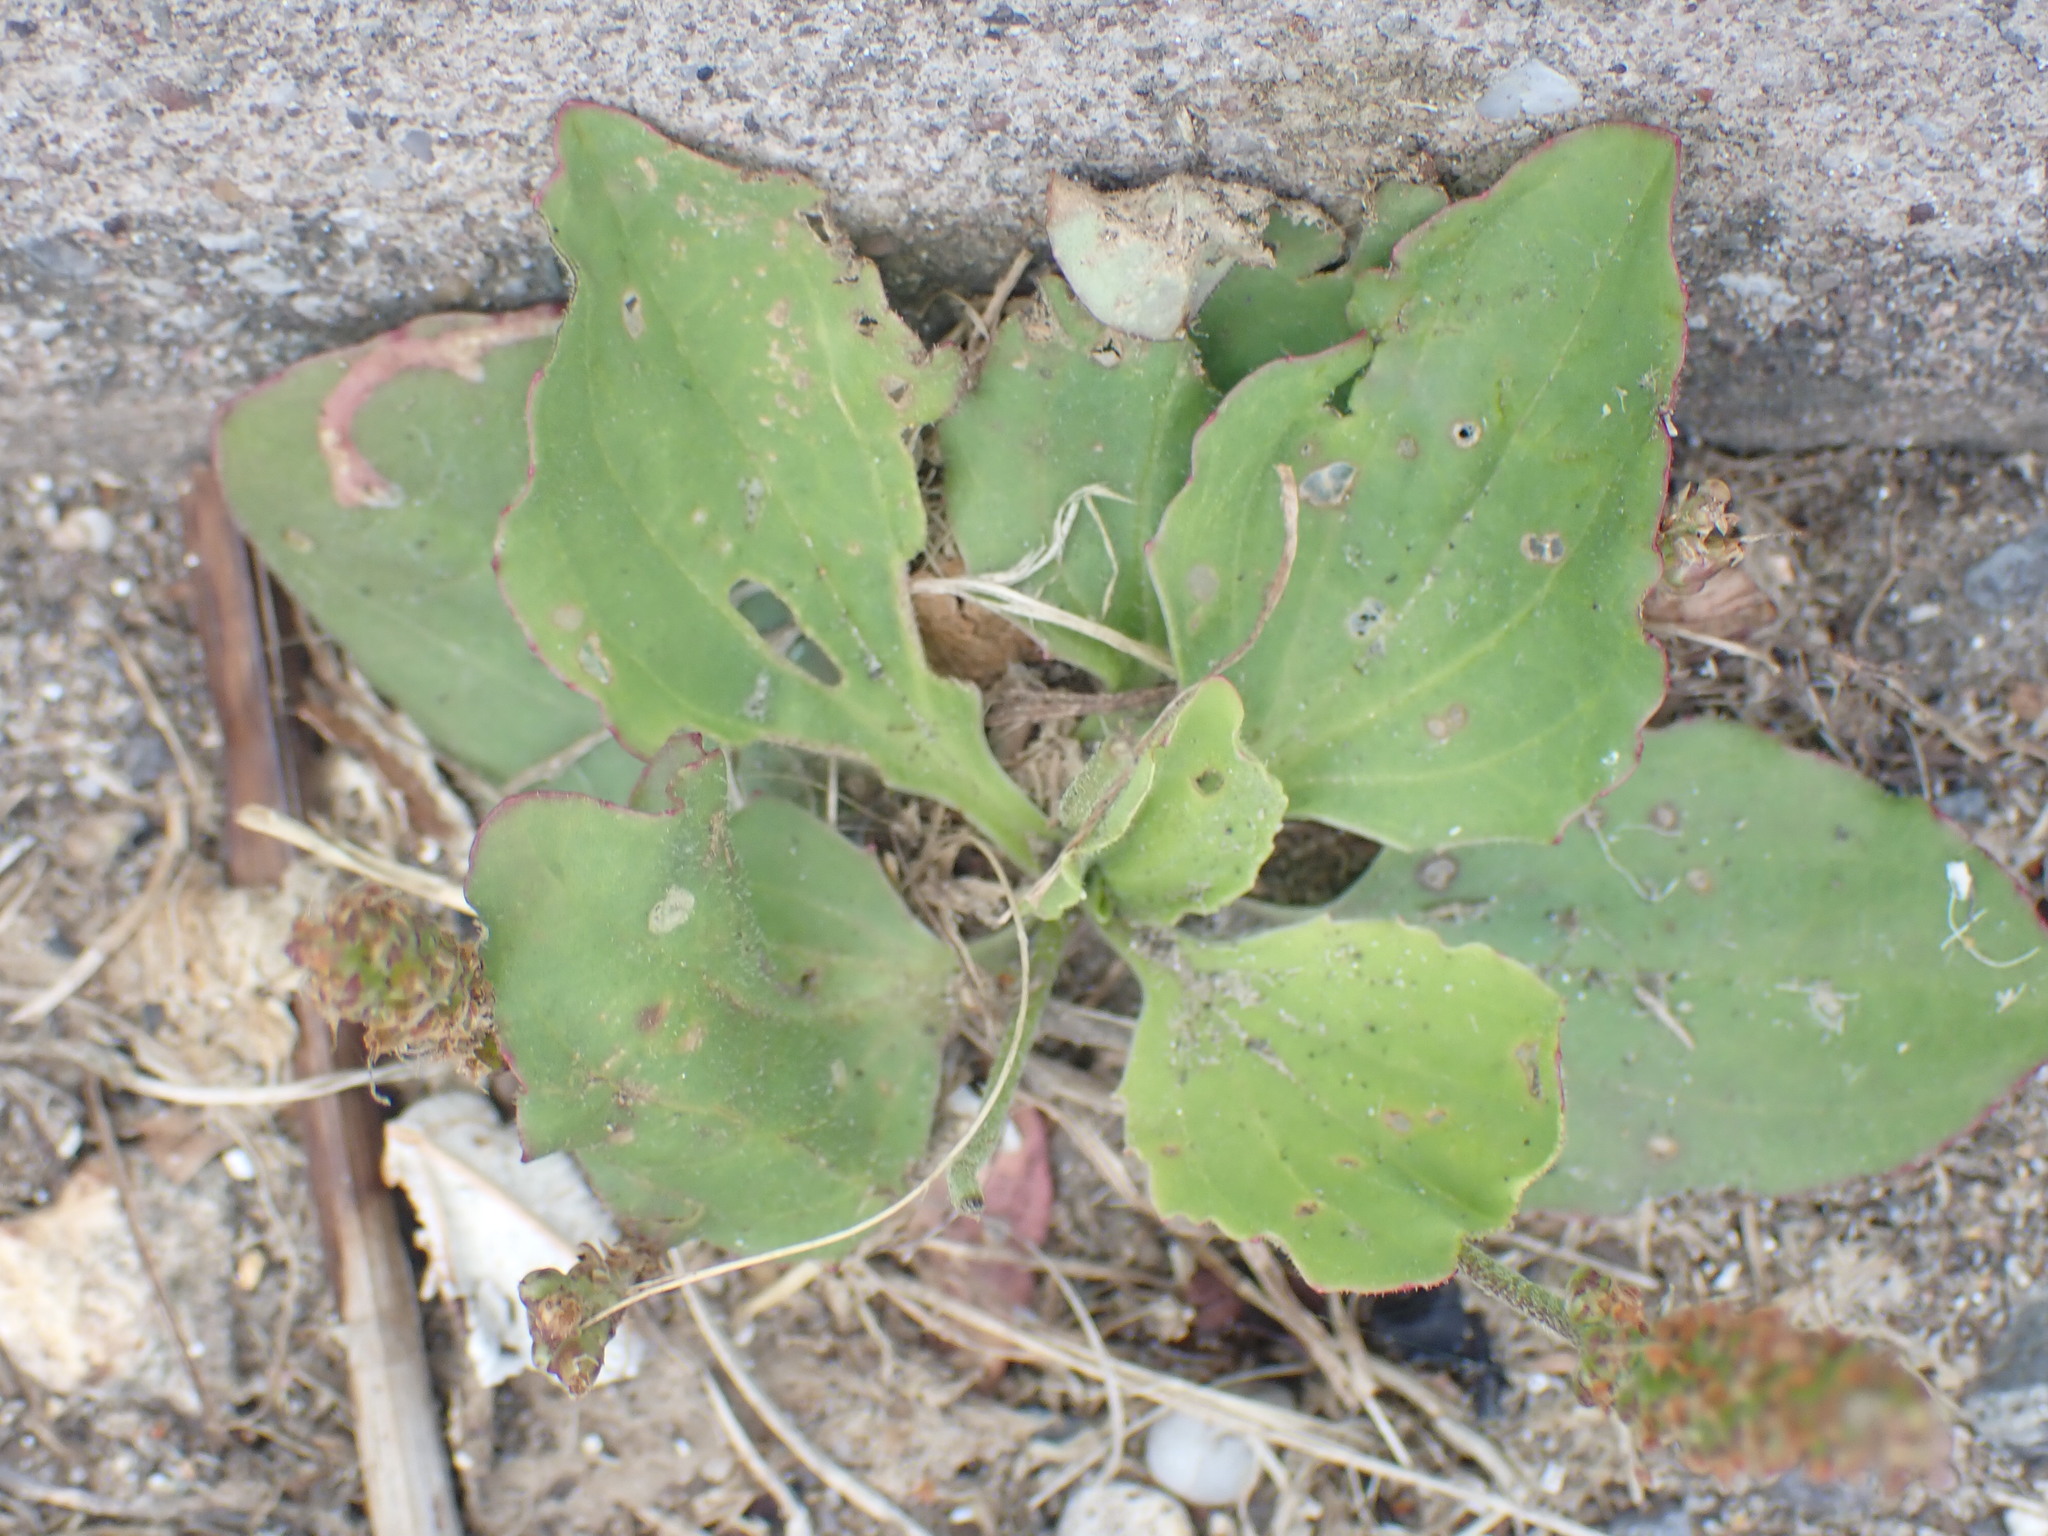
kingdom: Plantae
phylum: Tracheophyta
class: Magnoliopsida
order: Lamiales
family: Plantaginaceae
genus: Plantago
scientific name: Plantago major
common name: Common plantain
